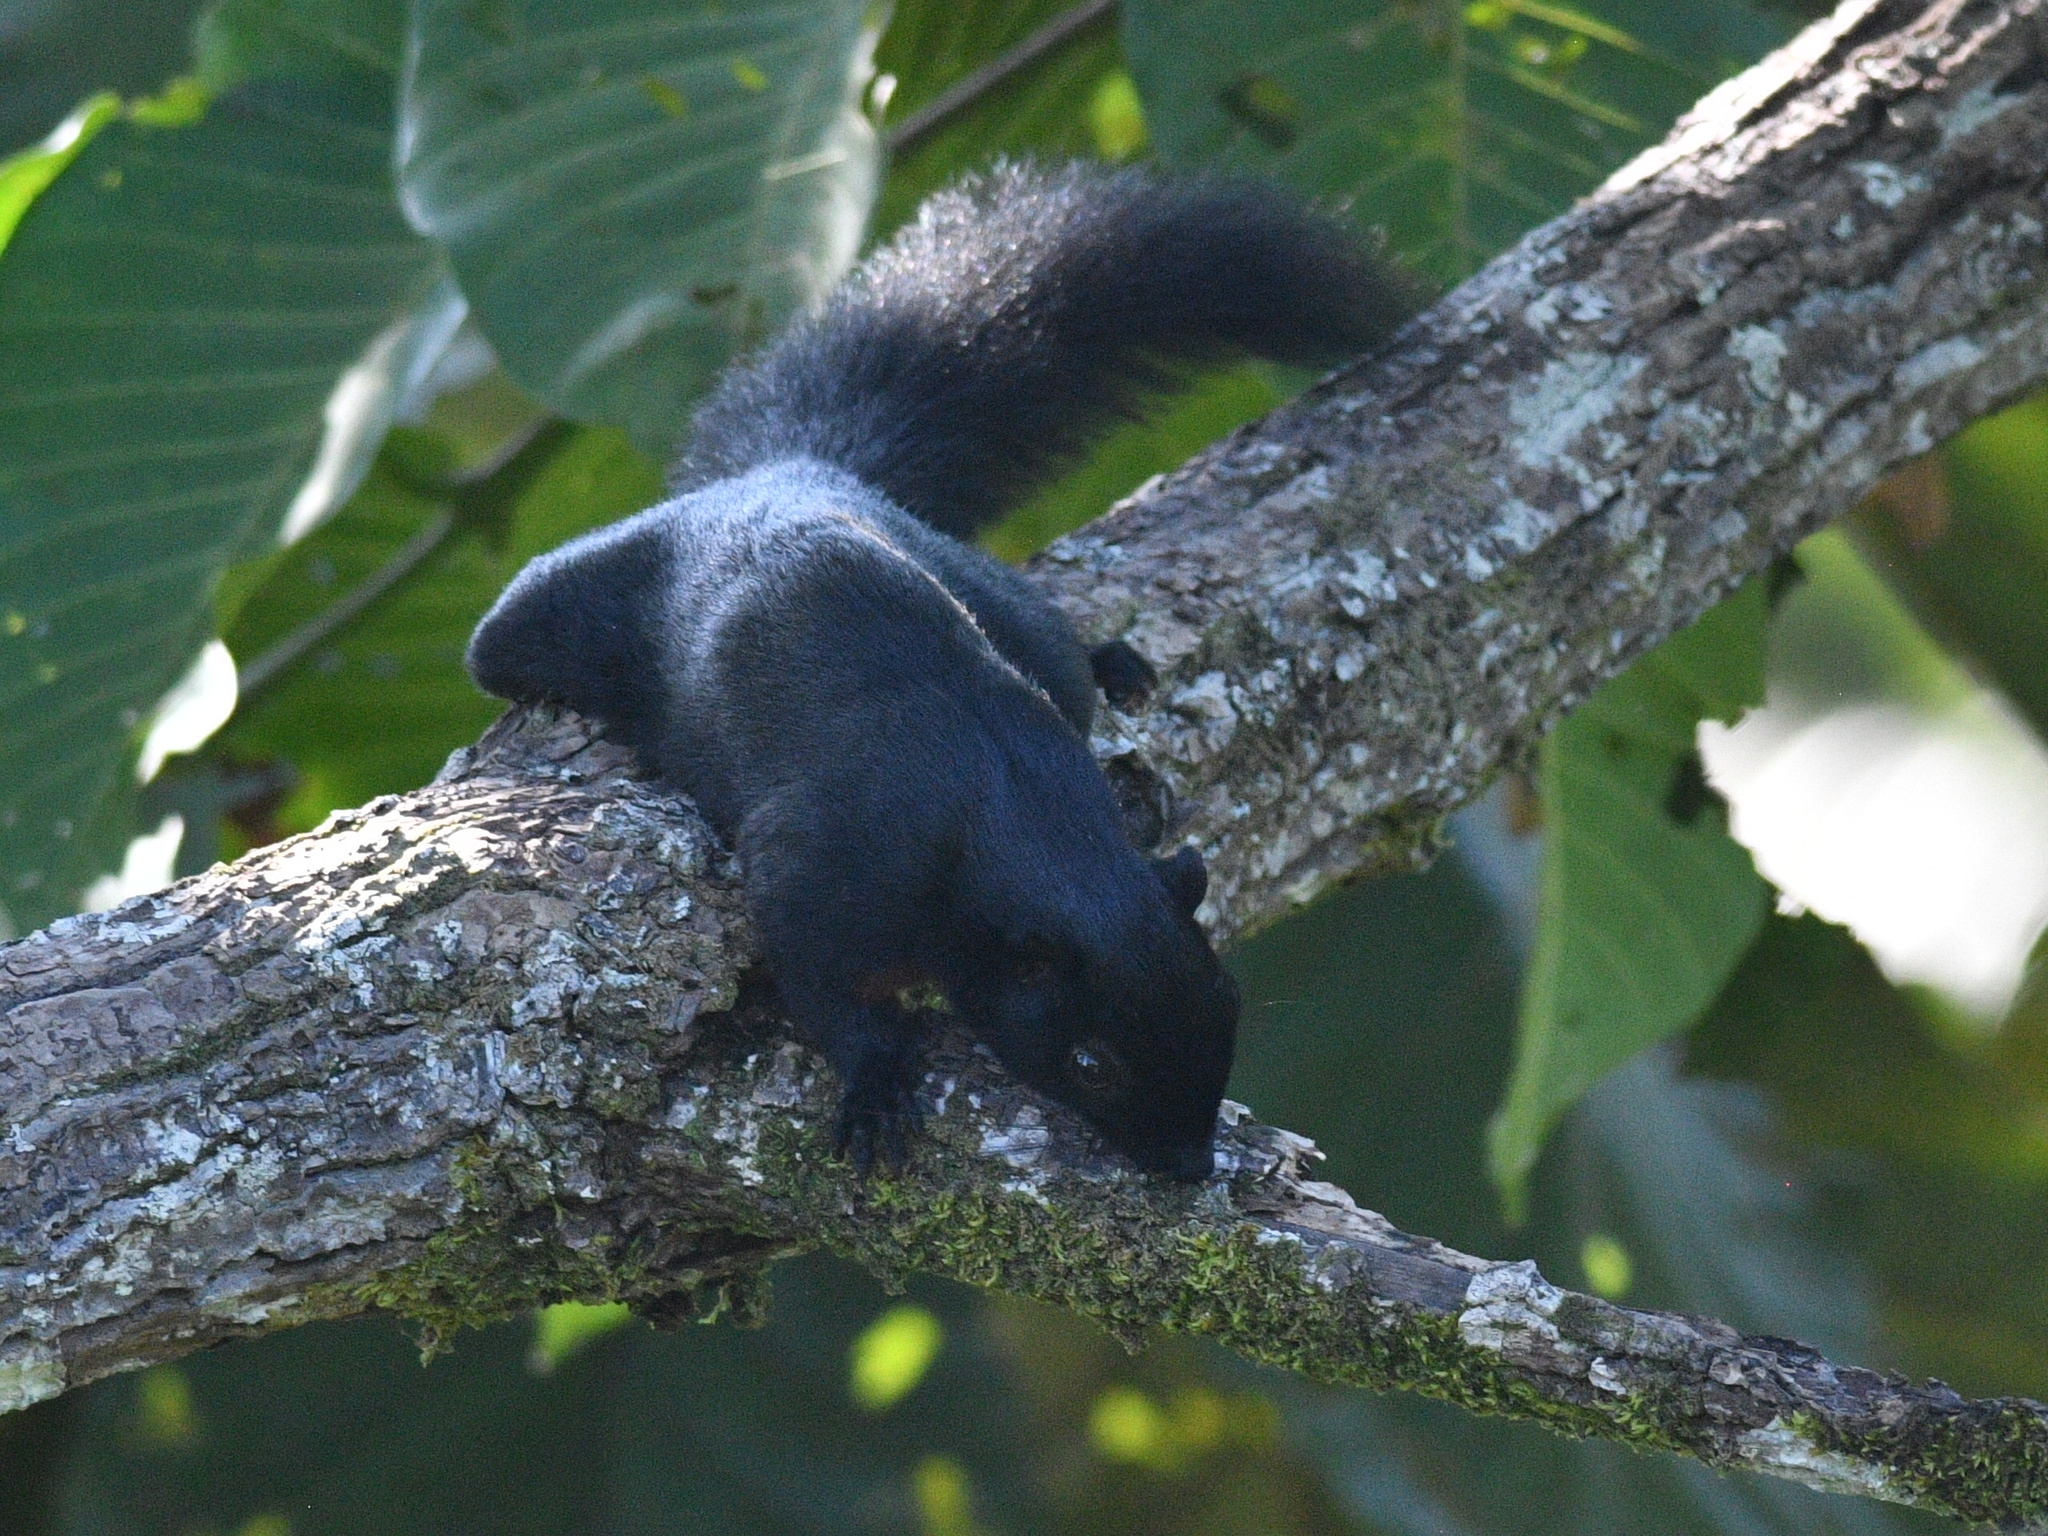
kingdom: Animalia
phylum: Chordata
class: Mammalia
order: Rodentia
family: Sciuridae
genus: Callosciurus
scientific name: Callosciurus prevostii
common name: Prevost's squirrel
